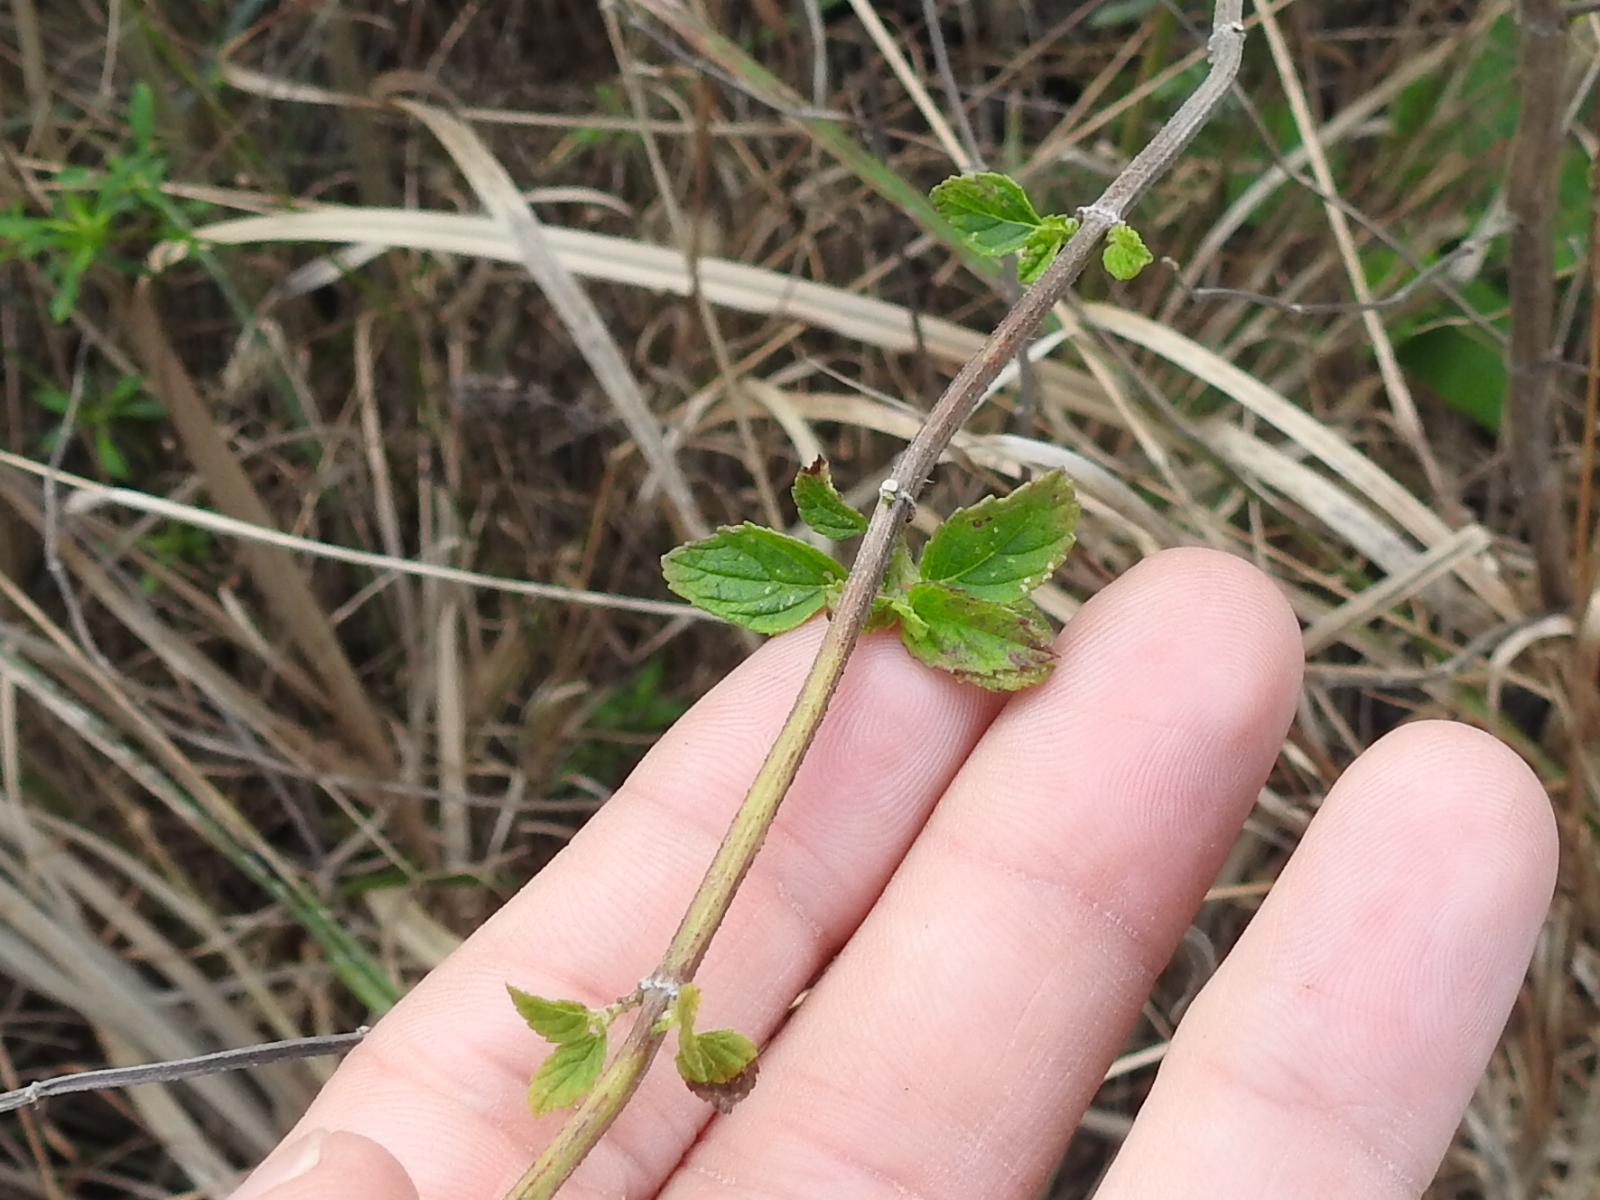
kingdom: Plantae
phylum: Tracheophyta
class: Magnoliopsida
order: Lamiales
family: Lamiaceae
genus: Mesosphaerum
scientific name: Mesosphaerum pectinatum
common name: Comb hyptis
